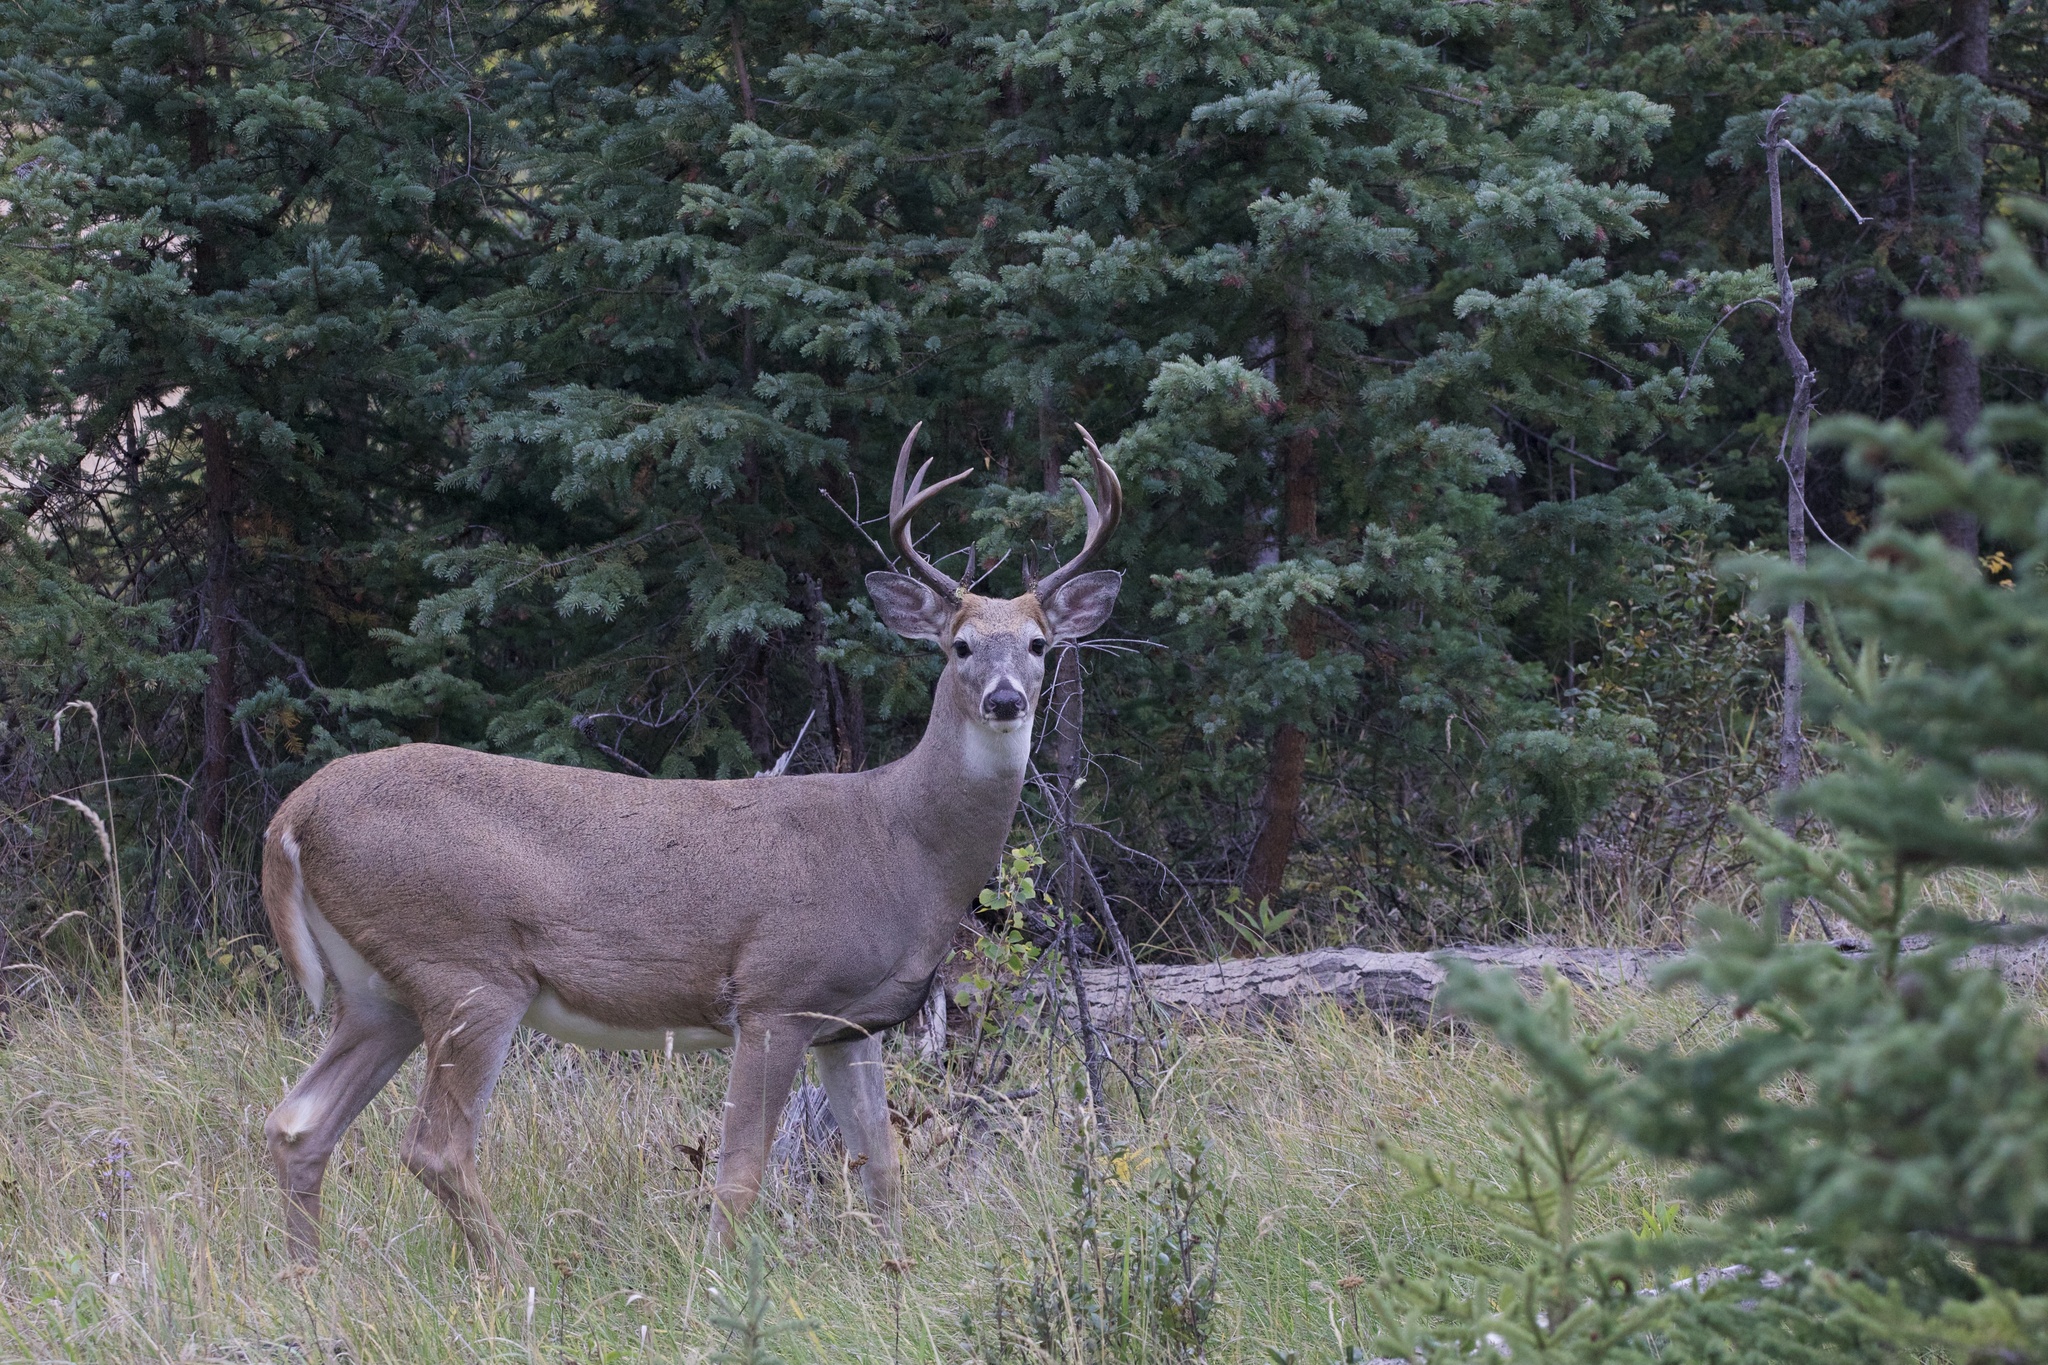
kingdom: Animalia
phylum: Chordata
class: Mammalia
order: Artiodactyla
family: Cervidae
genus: Odocoileus
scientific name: Odocoileus virginianus
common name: White-tailed deer
